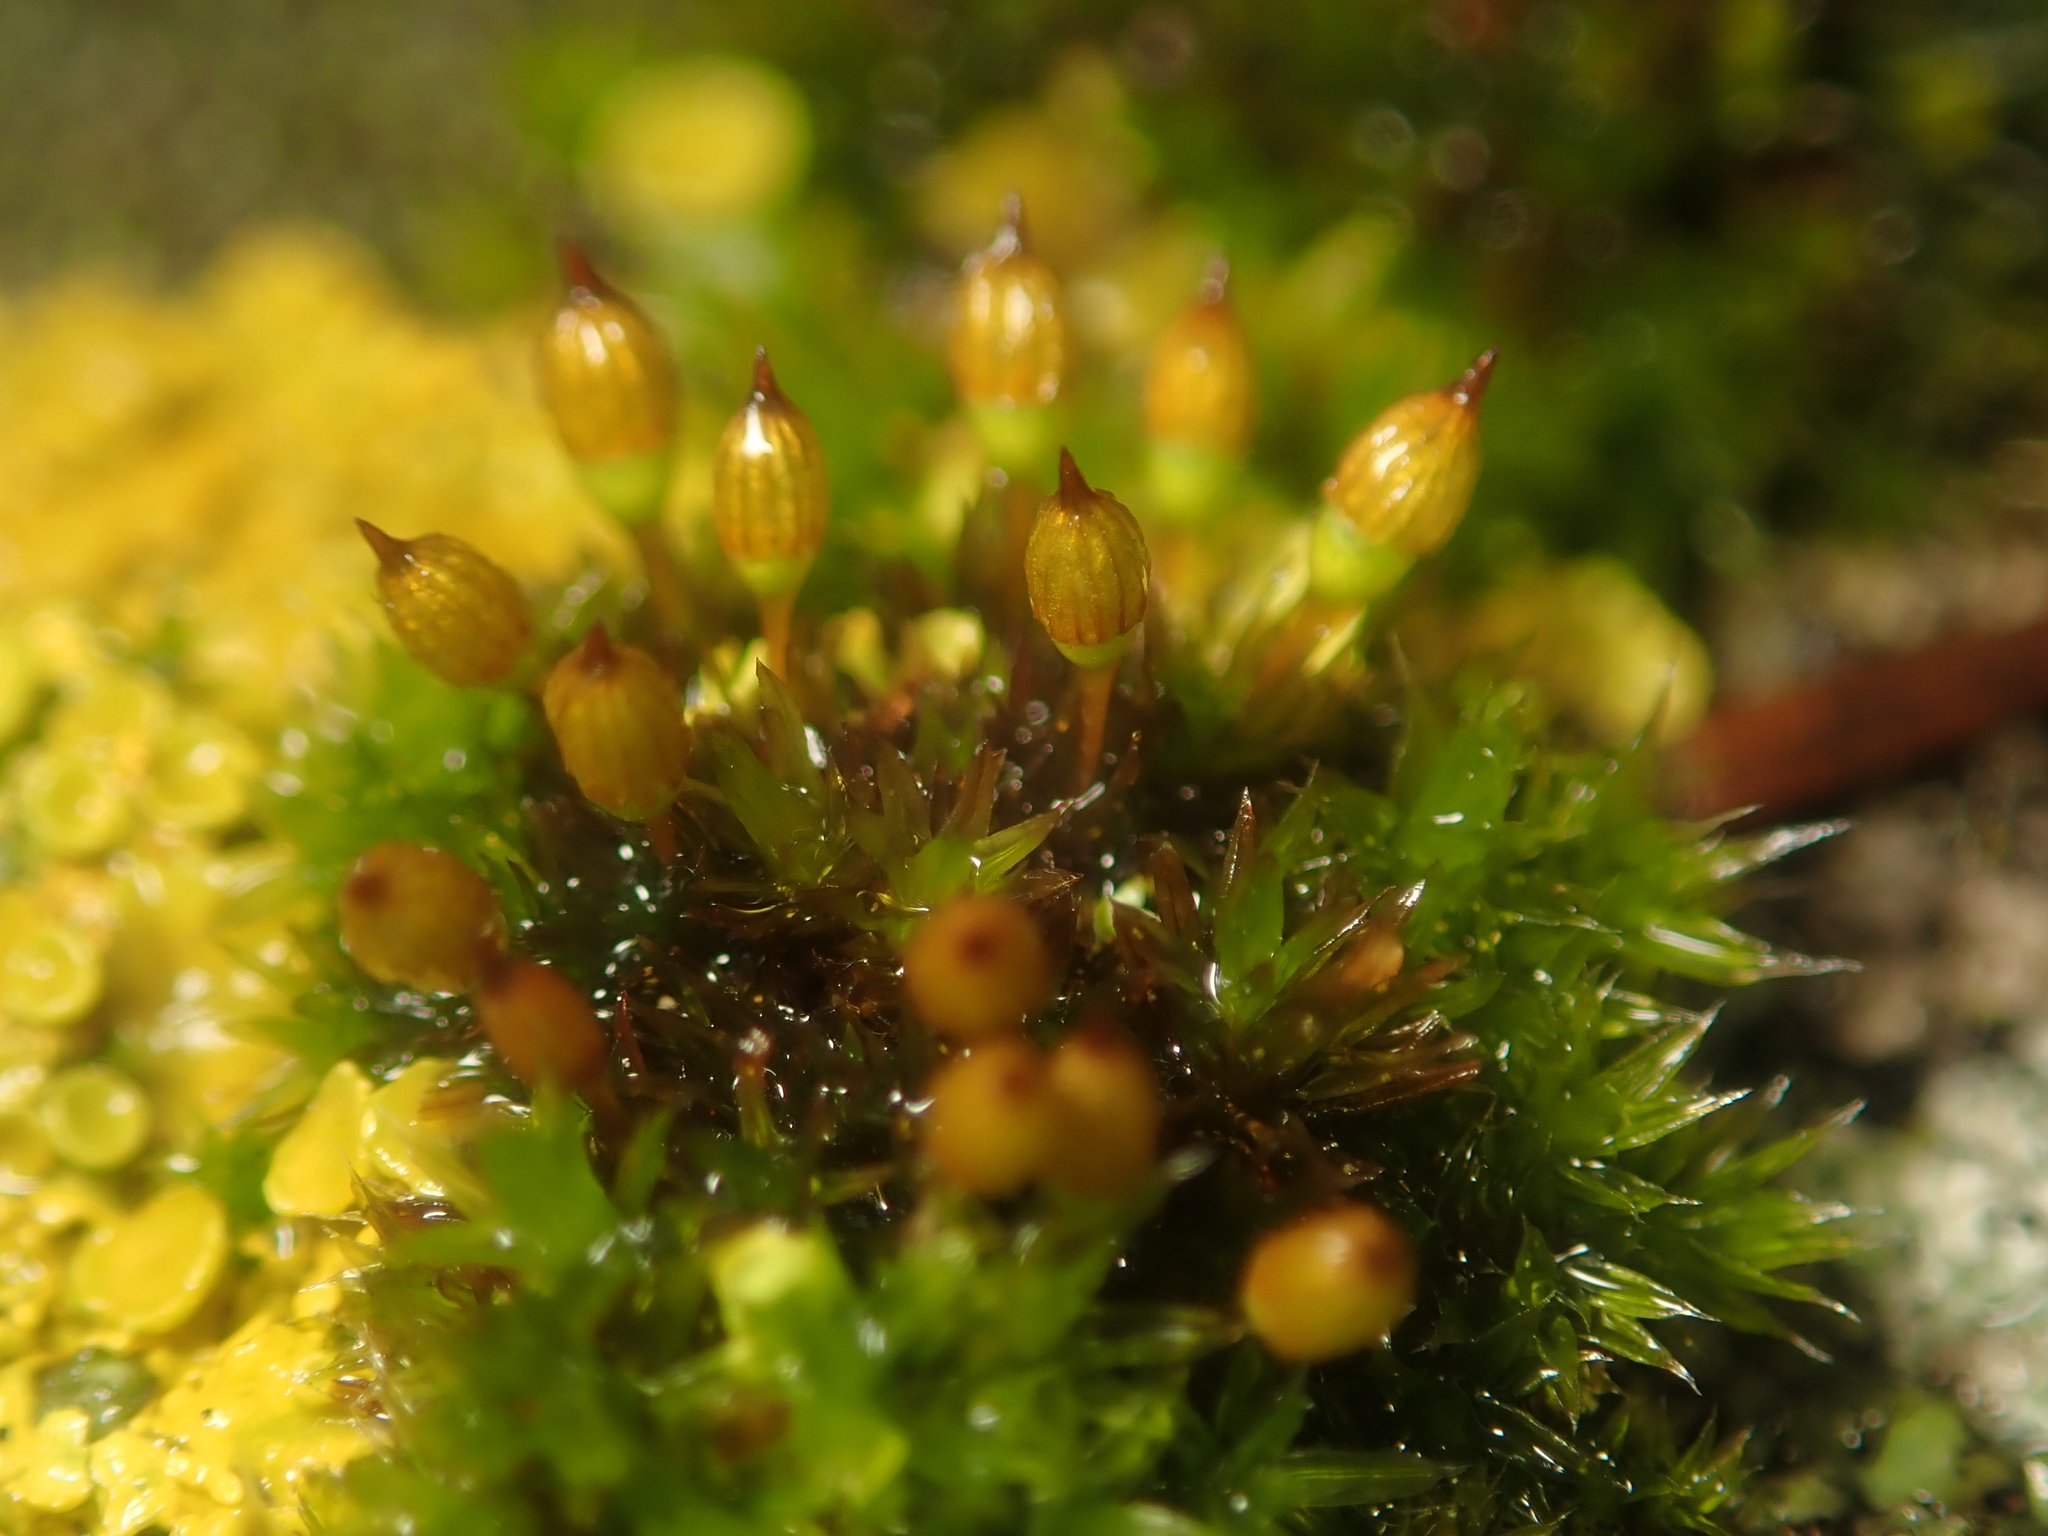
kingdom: Plantae
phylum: Bryophyta
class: Bryopsida
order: Orthotrichales
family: Orthotrichaceae
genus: Orthotrichum
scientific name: Orthotrichum anomalum
